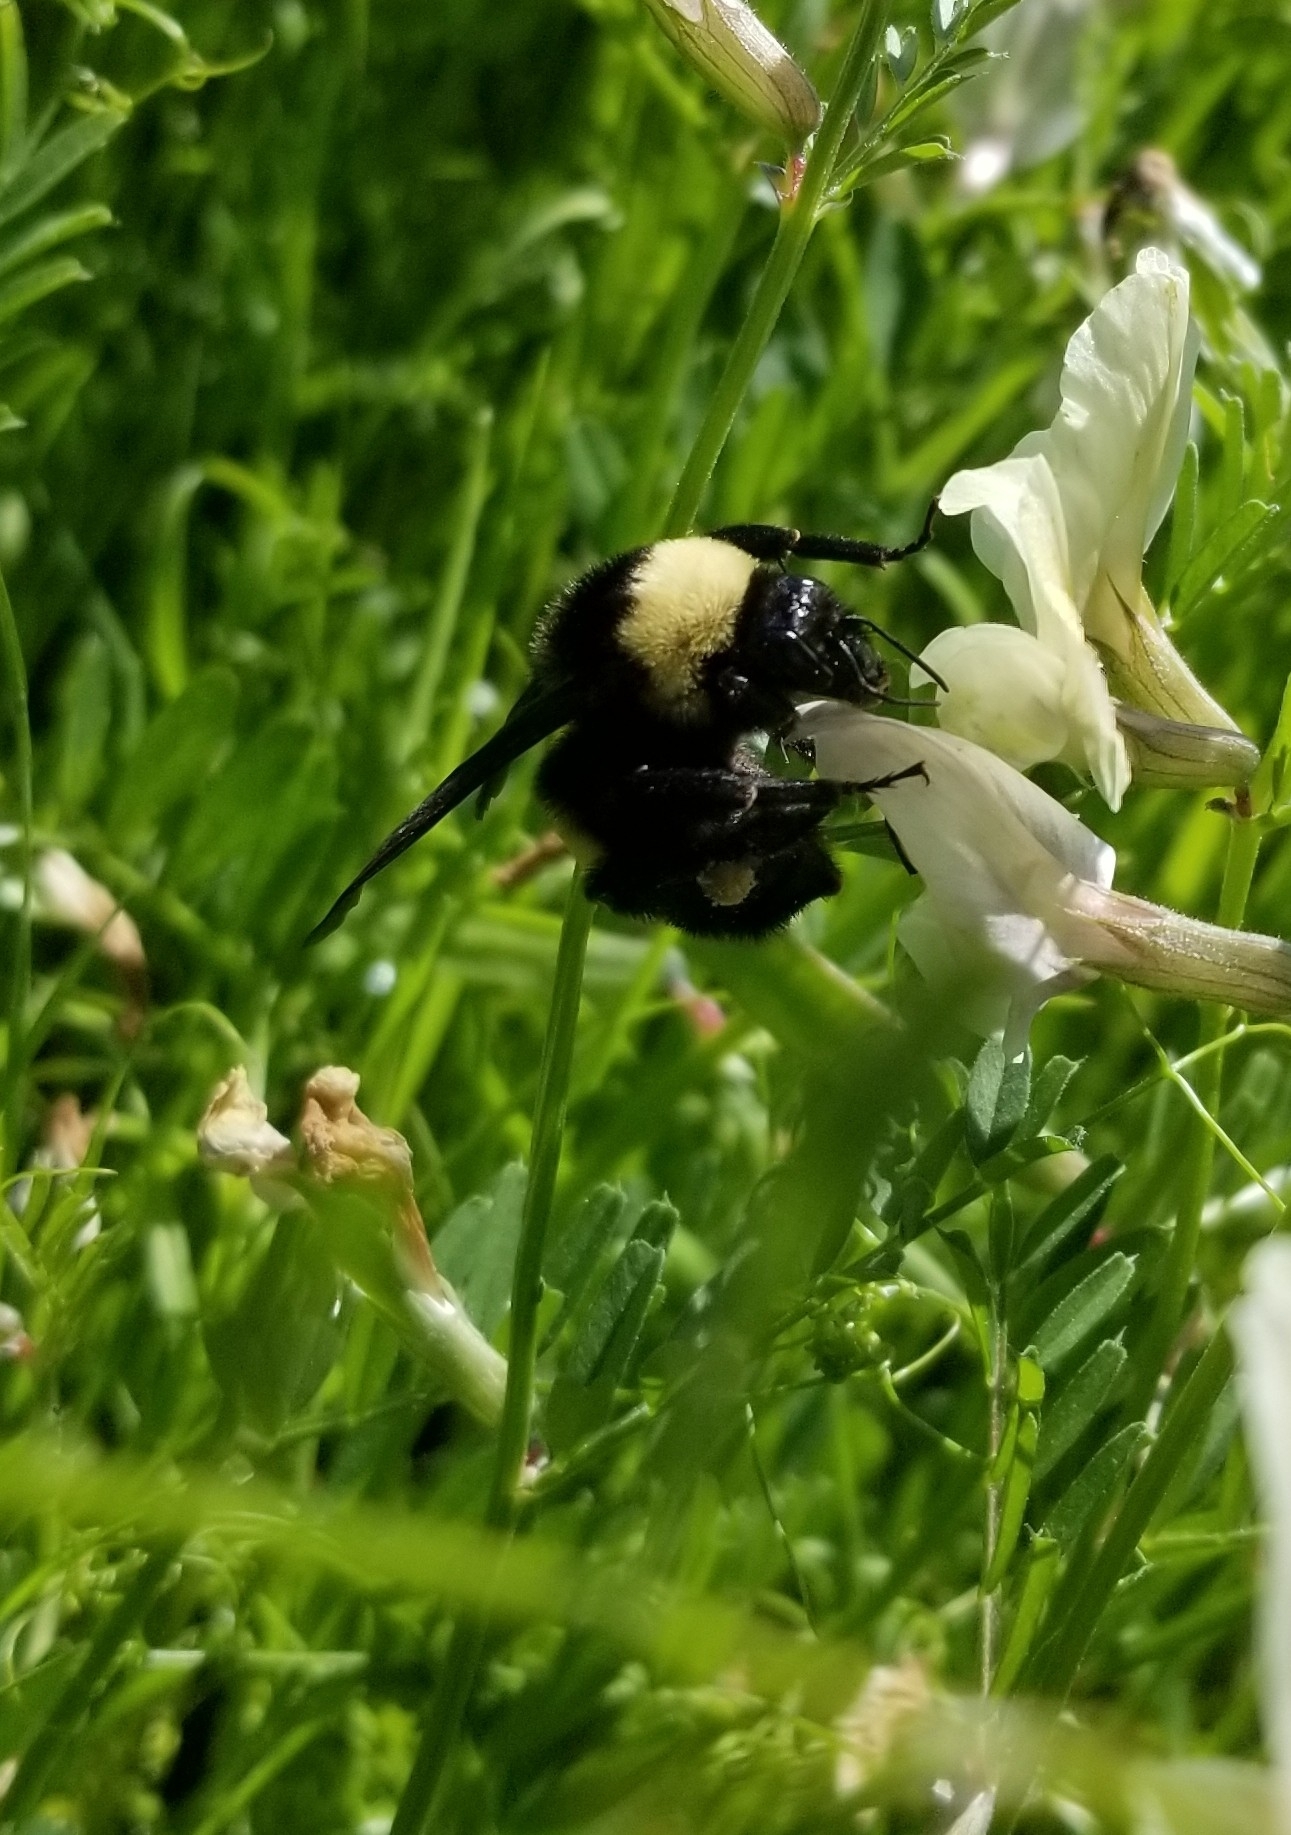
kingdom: Animalia
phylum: Arthropoda
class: Insecta
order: Hymenoptera
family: Apidae
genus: Bombus
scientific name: Bombus pensylvanicus
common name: Bumble bee
